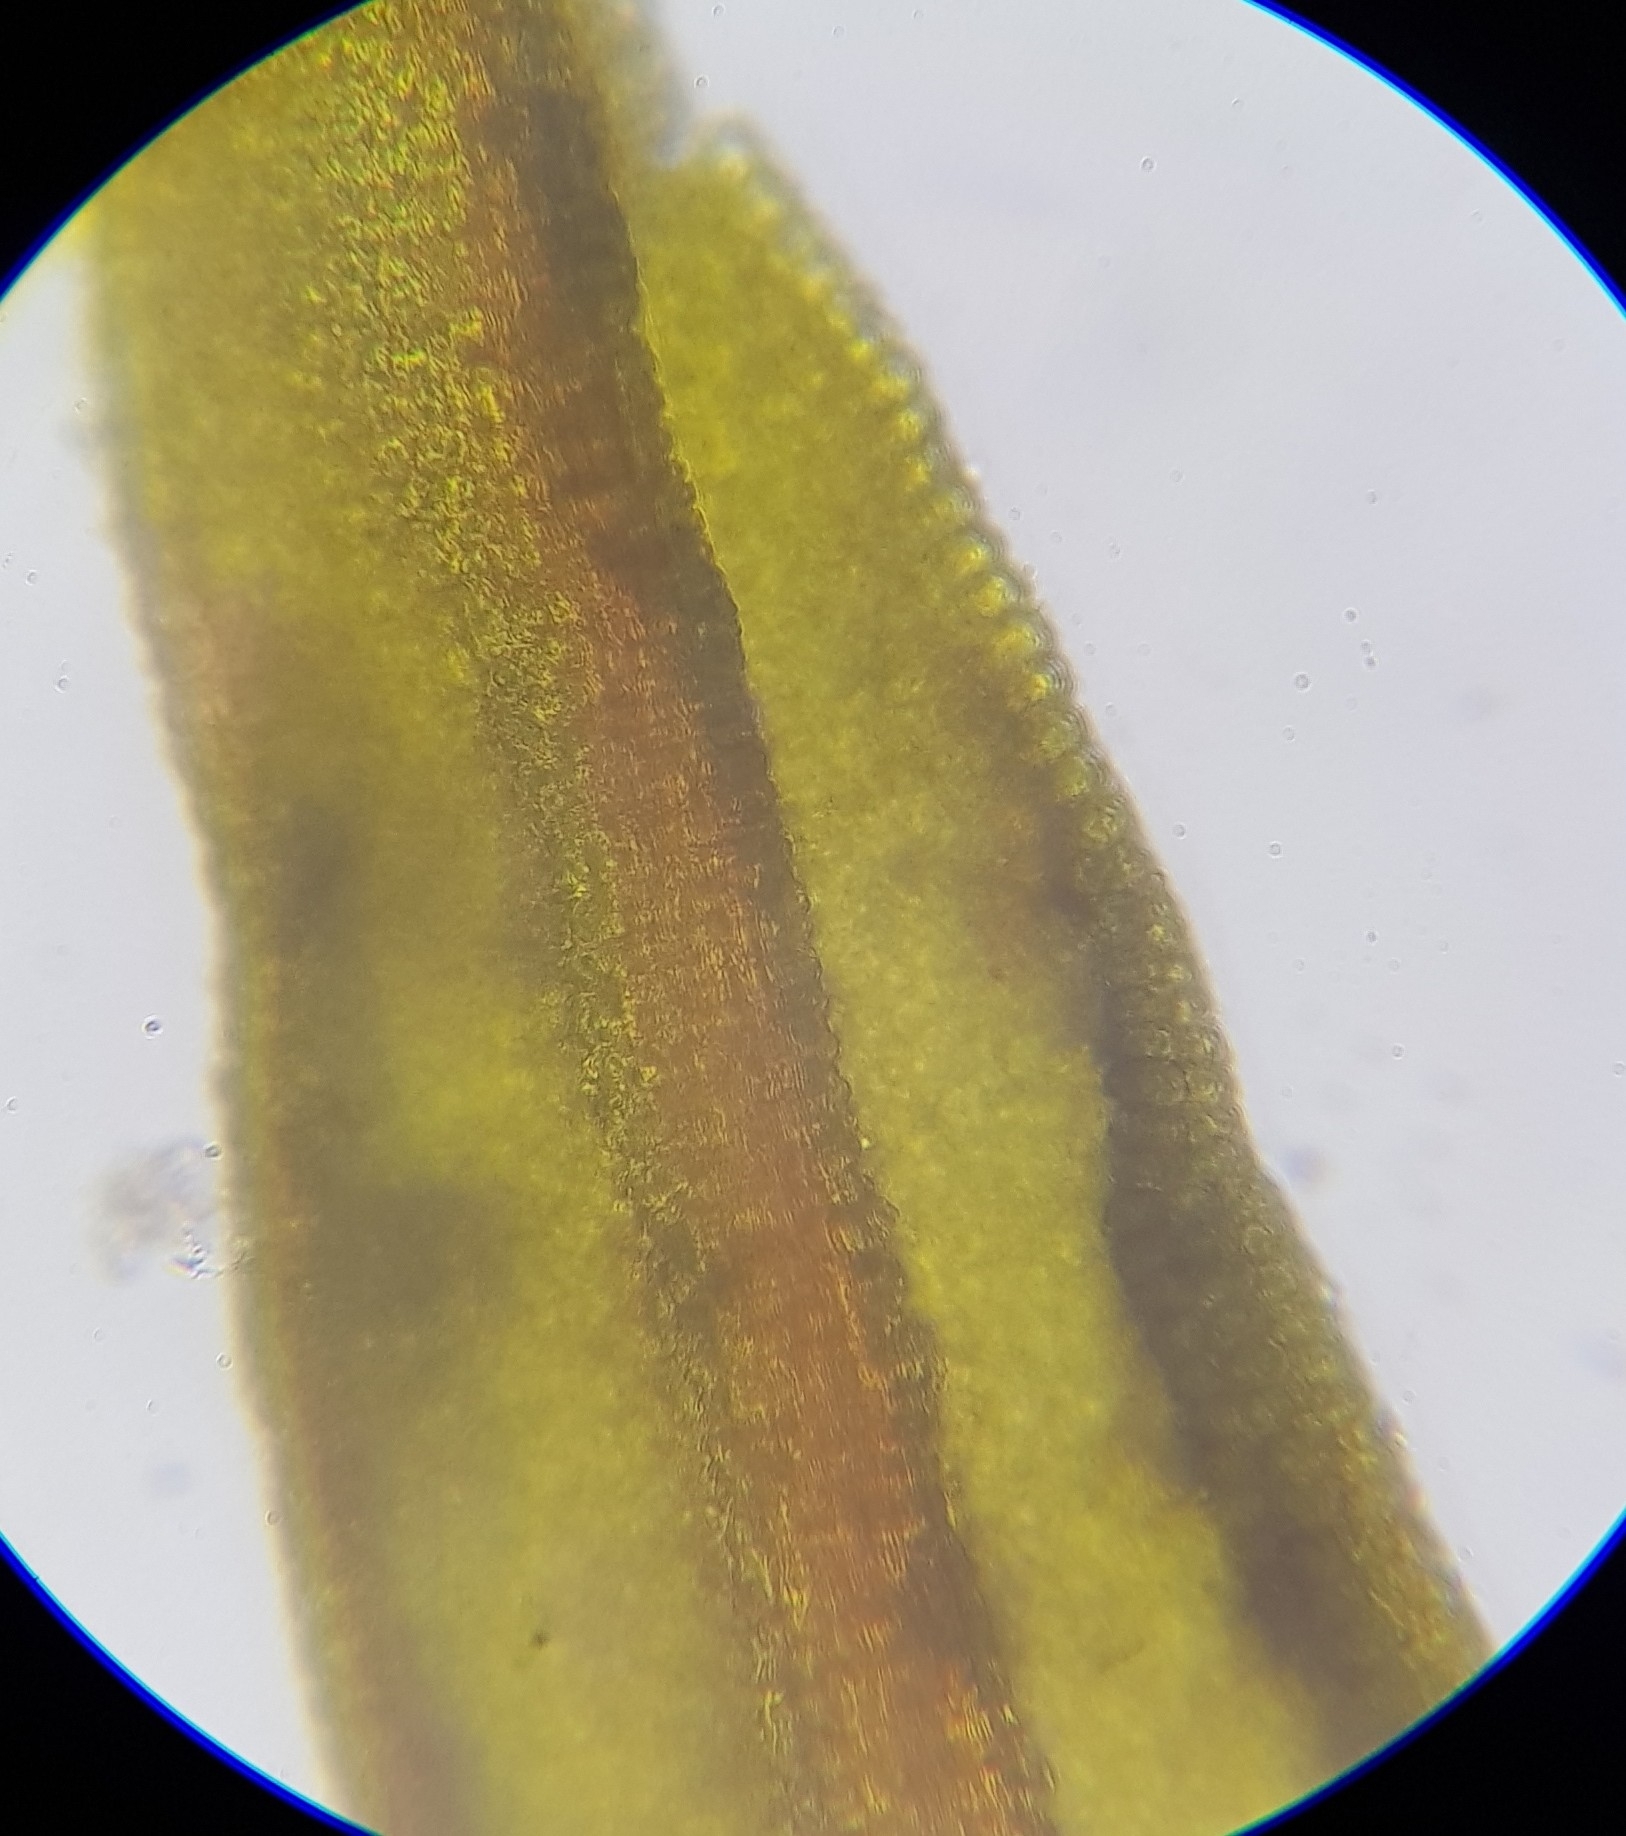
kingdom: Plantae
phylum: Bryophyta
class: Bryopsida
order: Pottiales
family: Pottiaceae
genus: Bryoerythrophyllum
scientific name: Bryoerythrophyllum recurvirostrum
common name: Red beard moss
